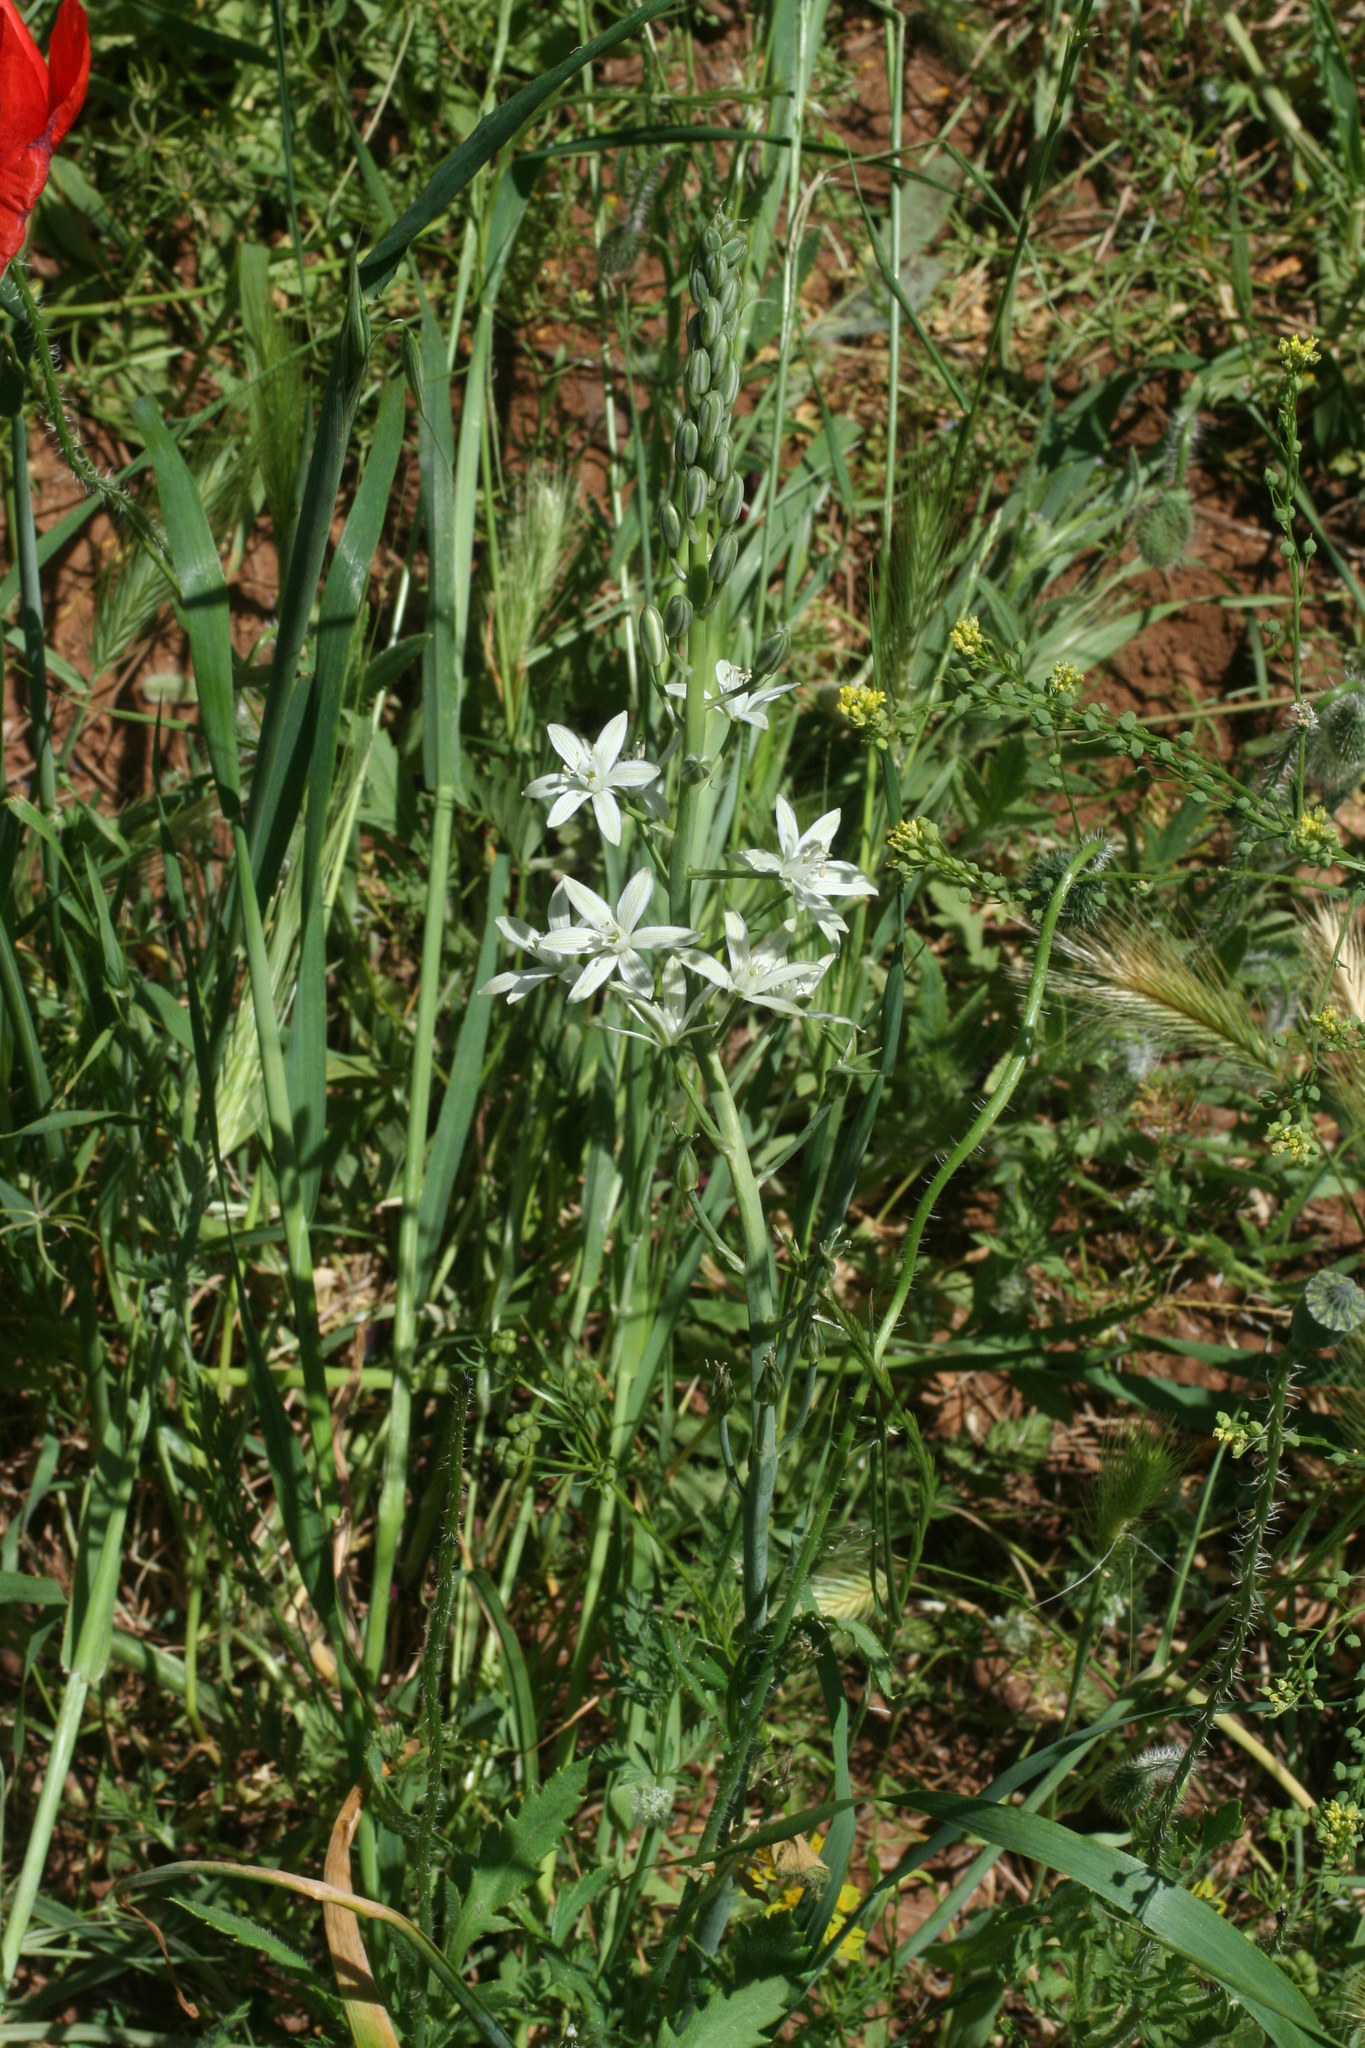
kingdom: Plantae
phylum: Tracheophyta
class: Liliopsida
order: Asparagales
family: Asparagaceae
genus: Ornithogalum
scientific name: Ornithogalum narbonense
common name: Bath-asparagus
